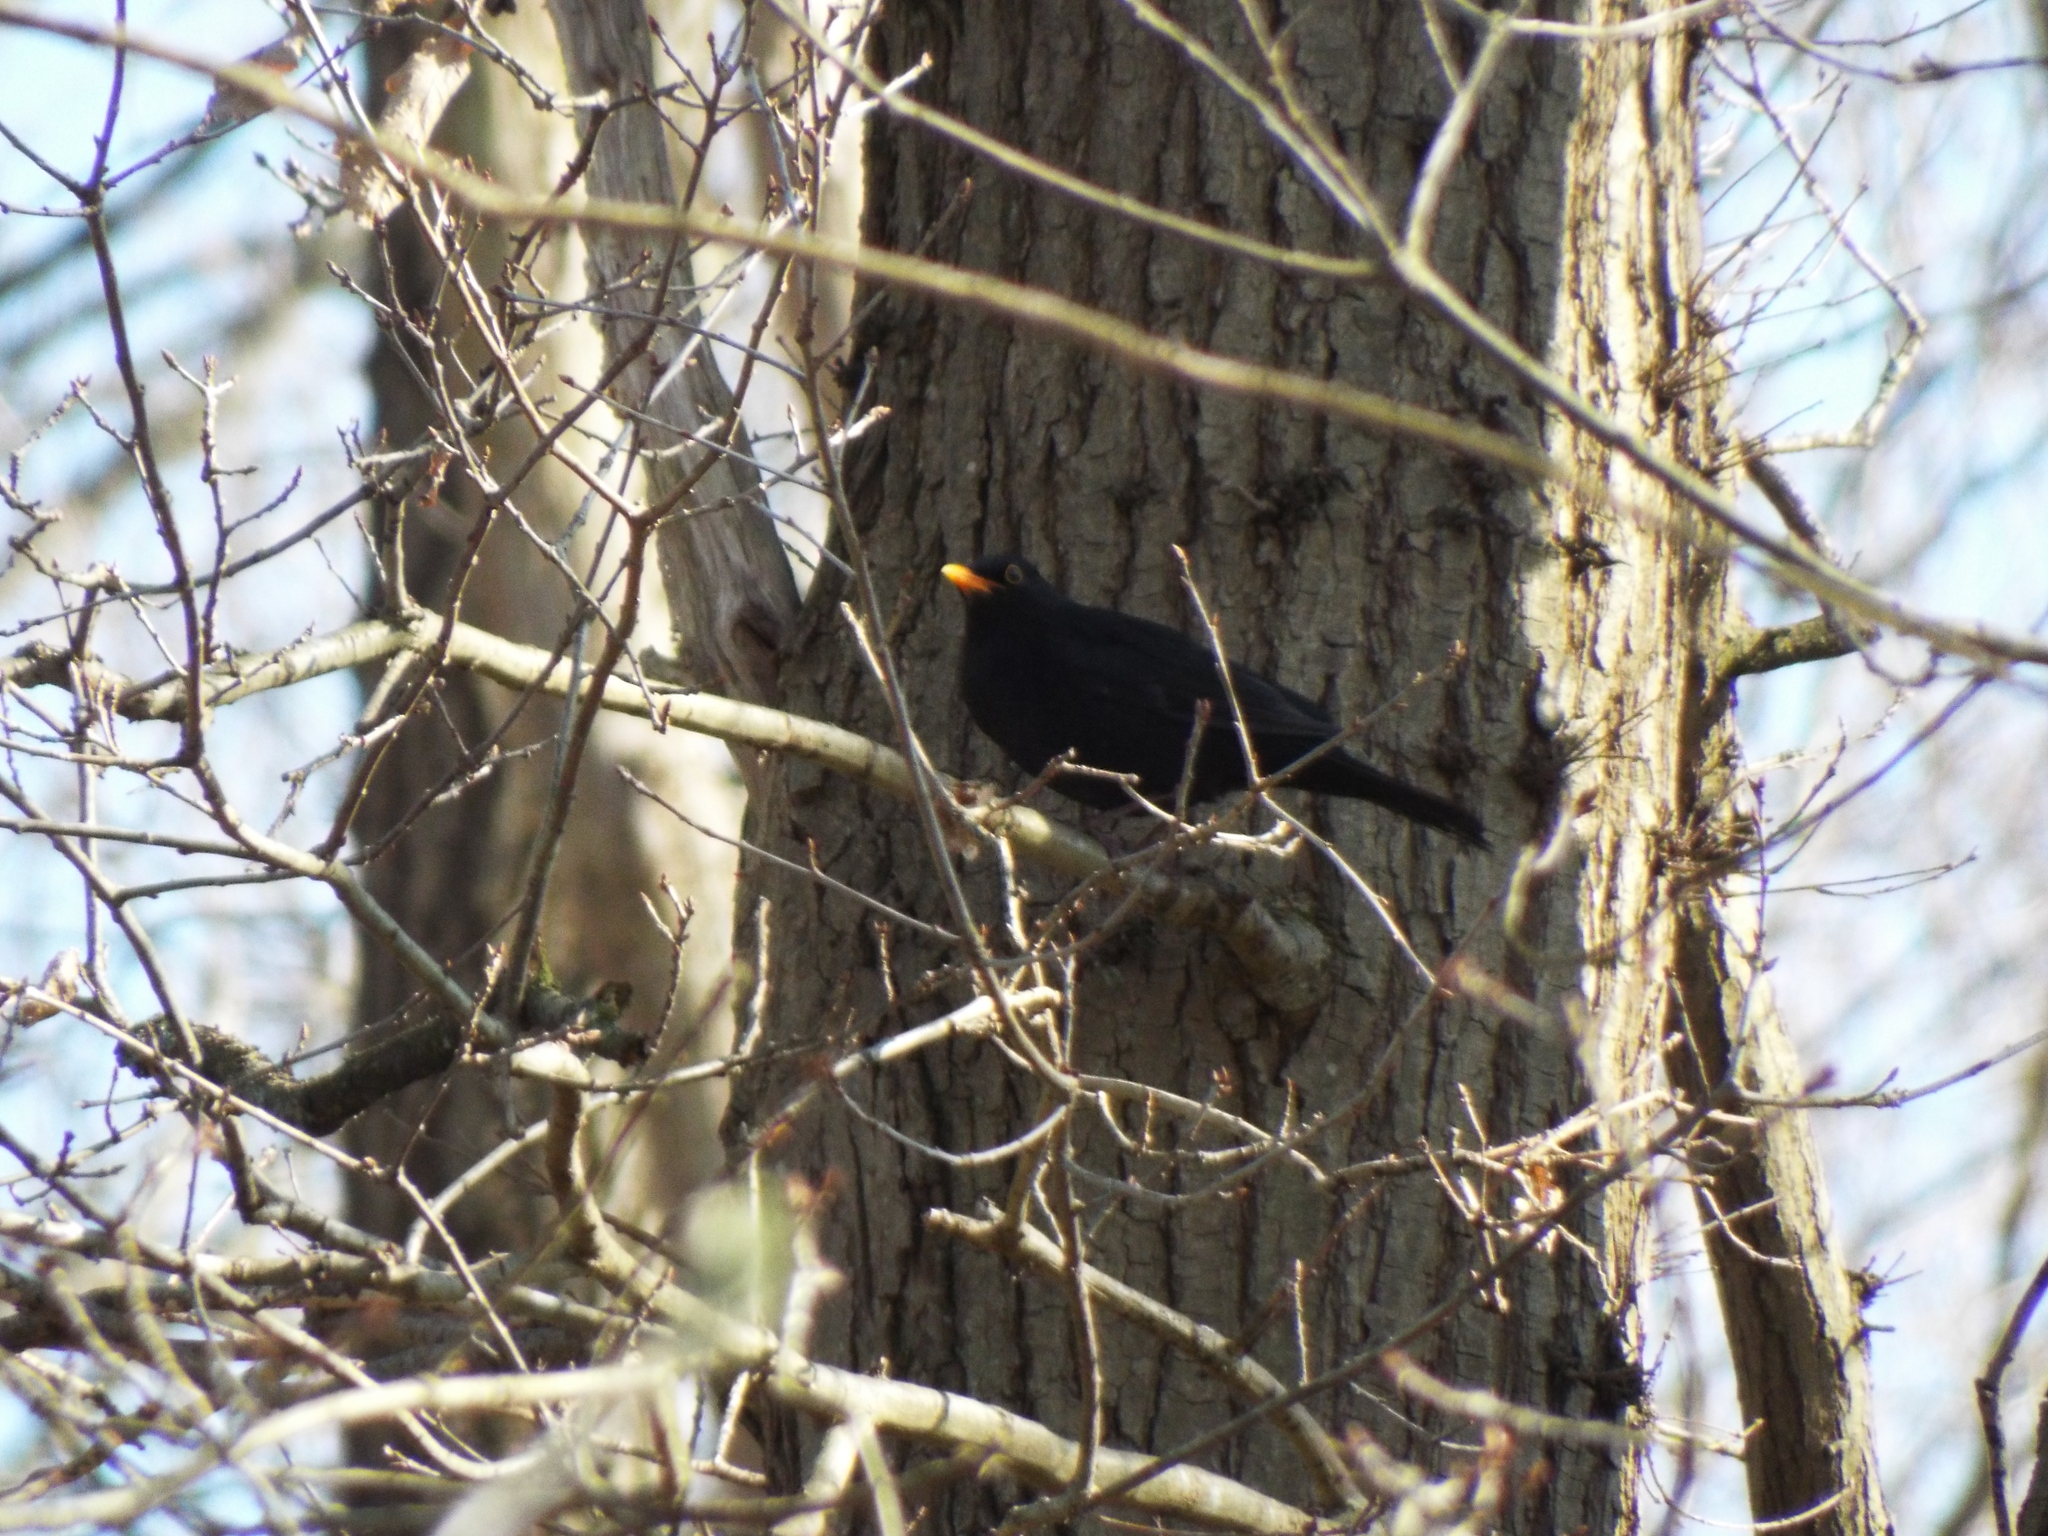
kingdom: Animalia
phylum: Chordata
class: Aves
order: Passeriformes
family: Turdidae
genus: Turdus
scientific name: Turdus merula
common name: Common blackbird
